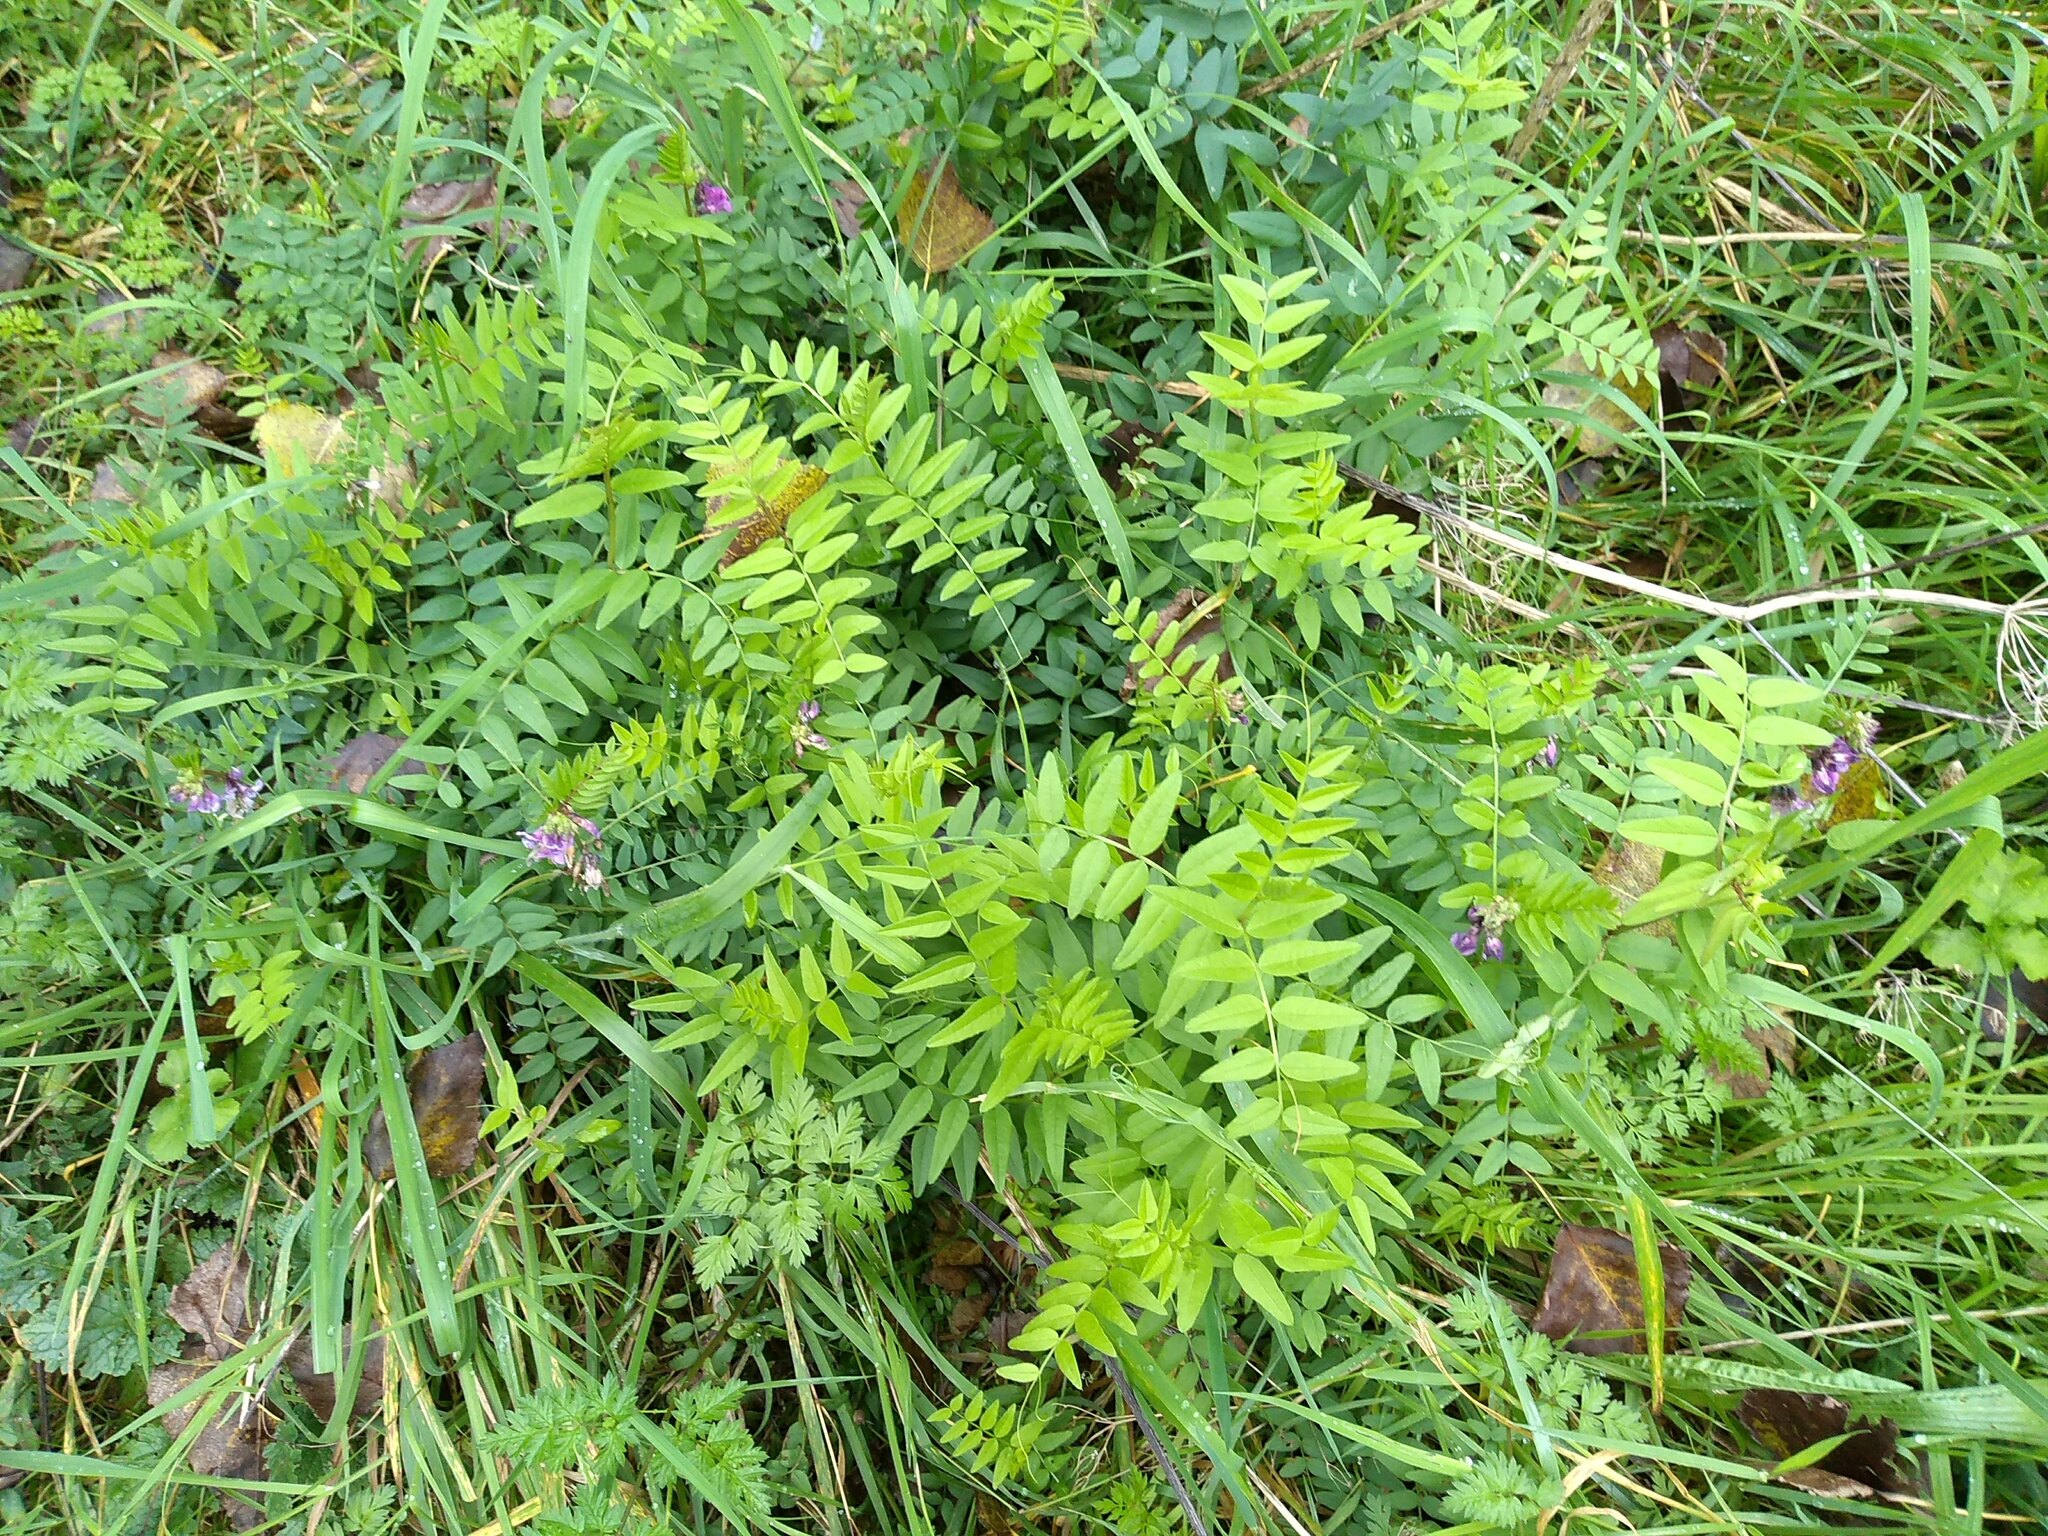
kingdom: Plantae
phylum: Tracheophyta
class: Magnoliopsida
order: Fabales
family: Fabaceae
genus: Vicia
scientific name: Vicia sepium
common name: Bush vetch
